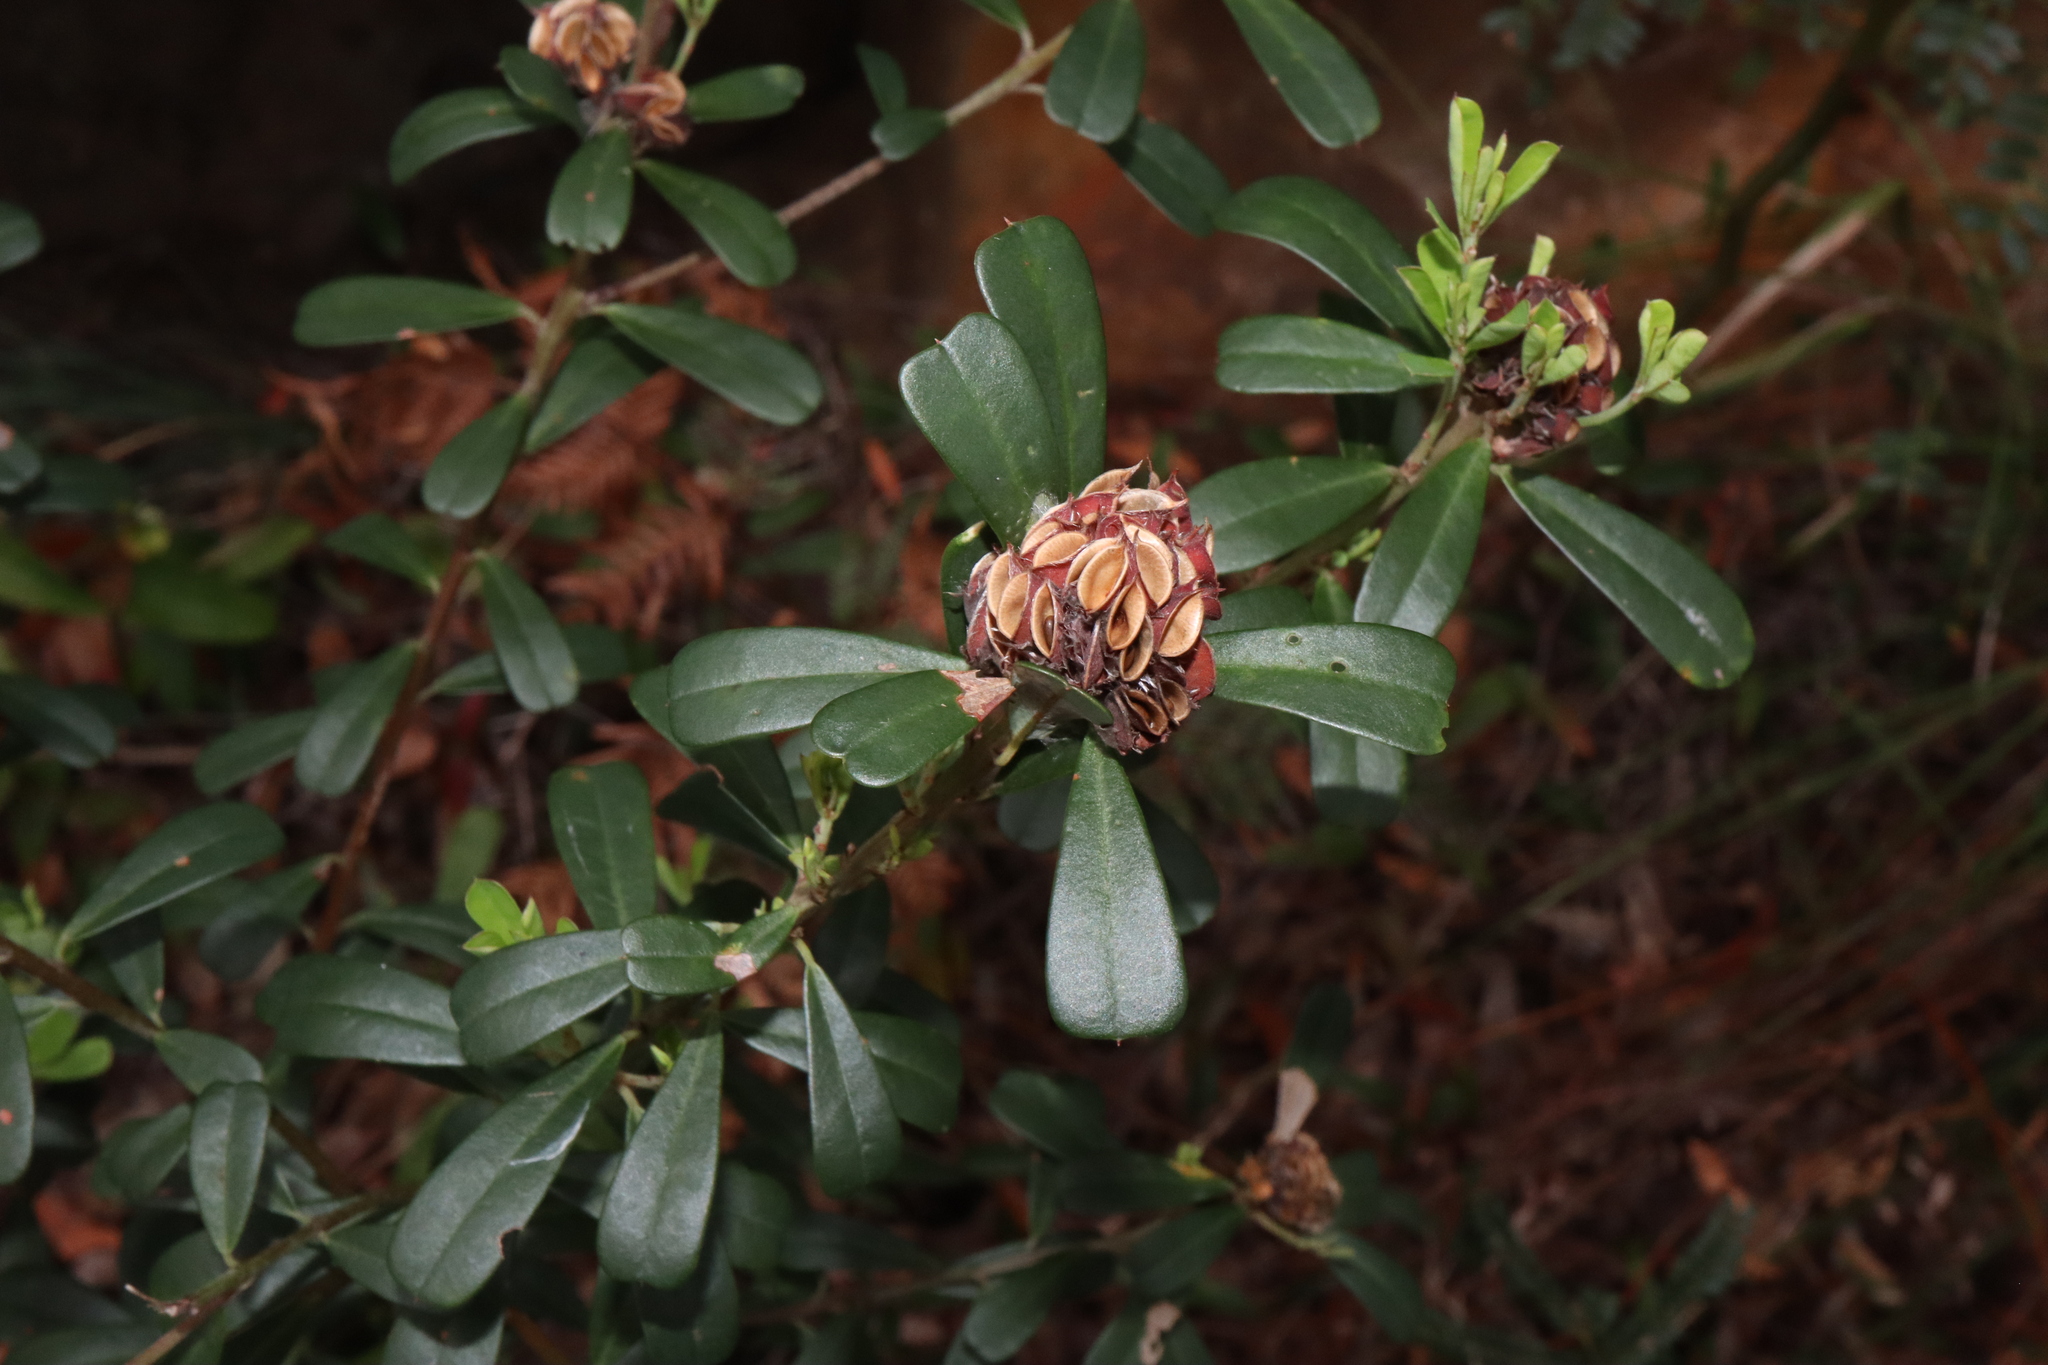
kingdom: Plantae
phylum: Tracheophyta
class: Magnoliopsida
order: Fabales
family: Fabaceae
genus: Pultenaea
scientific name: Pultenaea daphnoides
